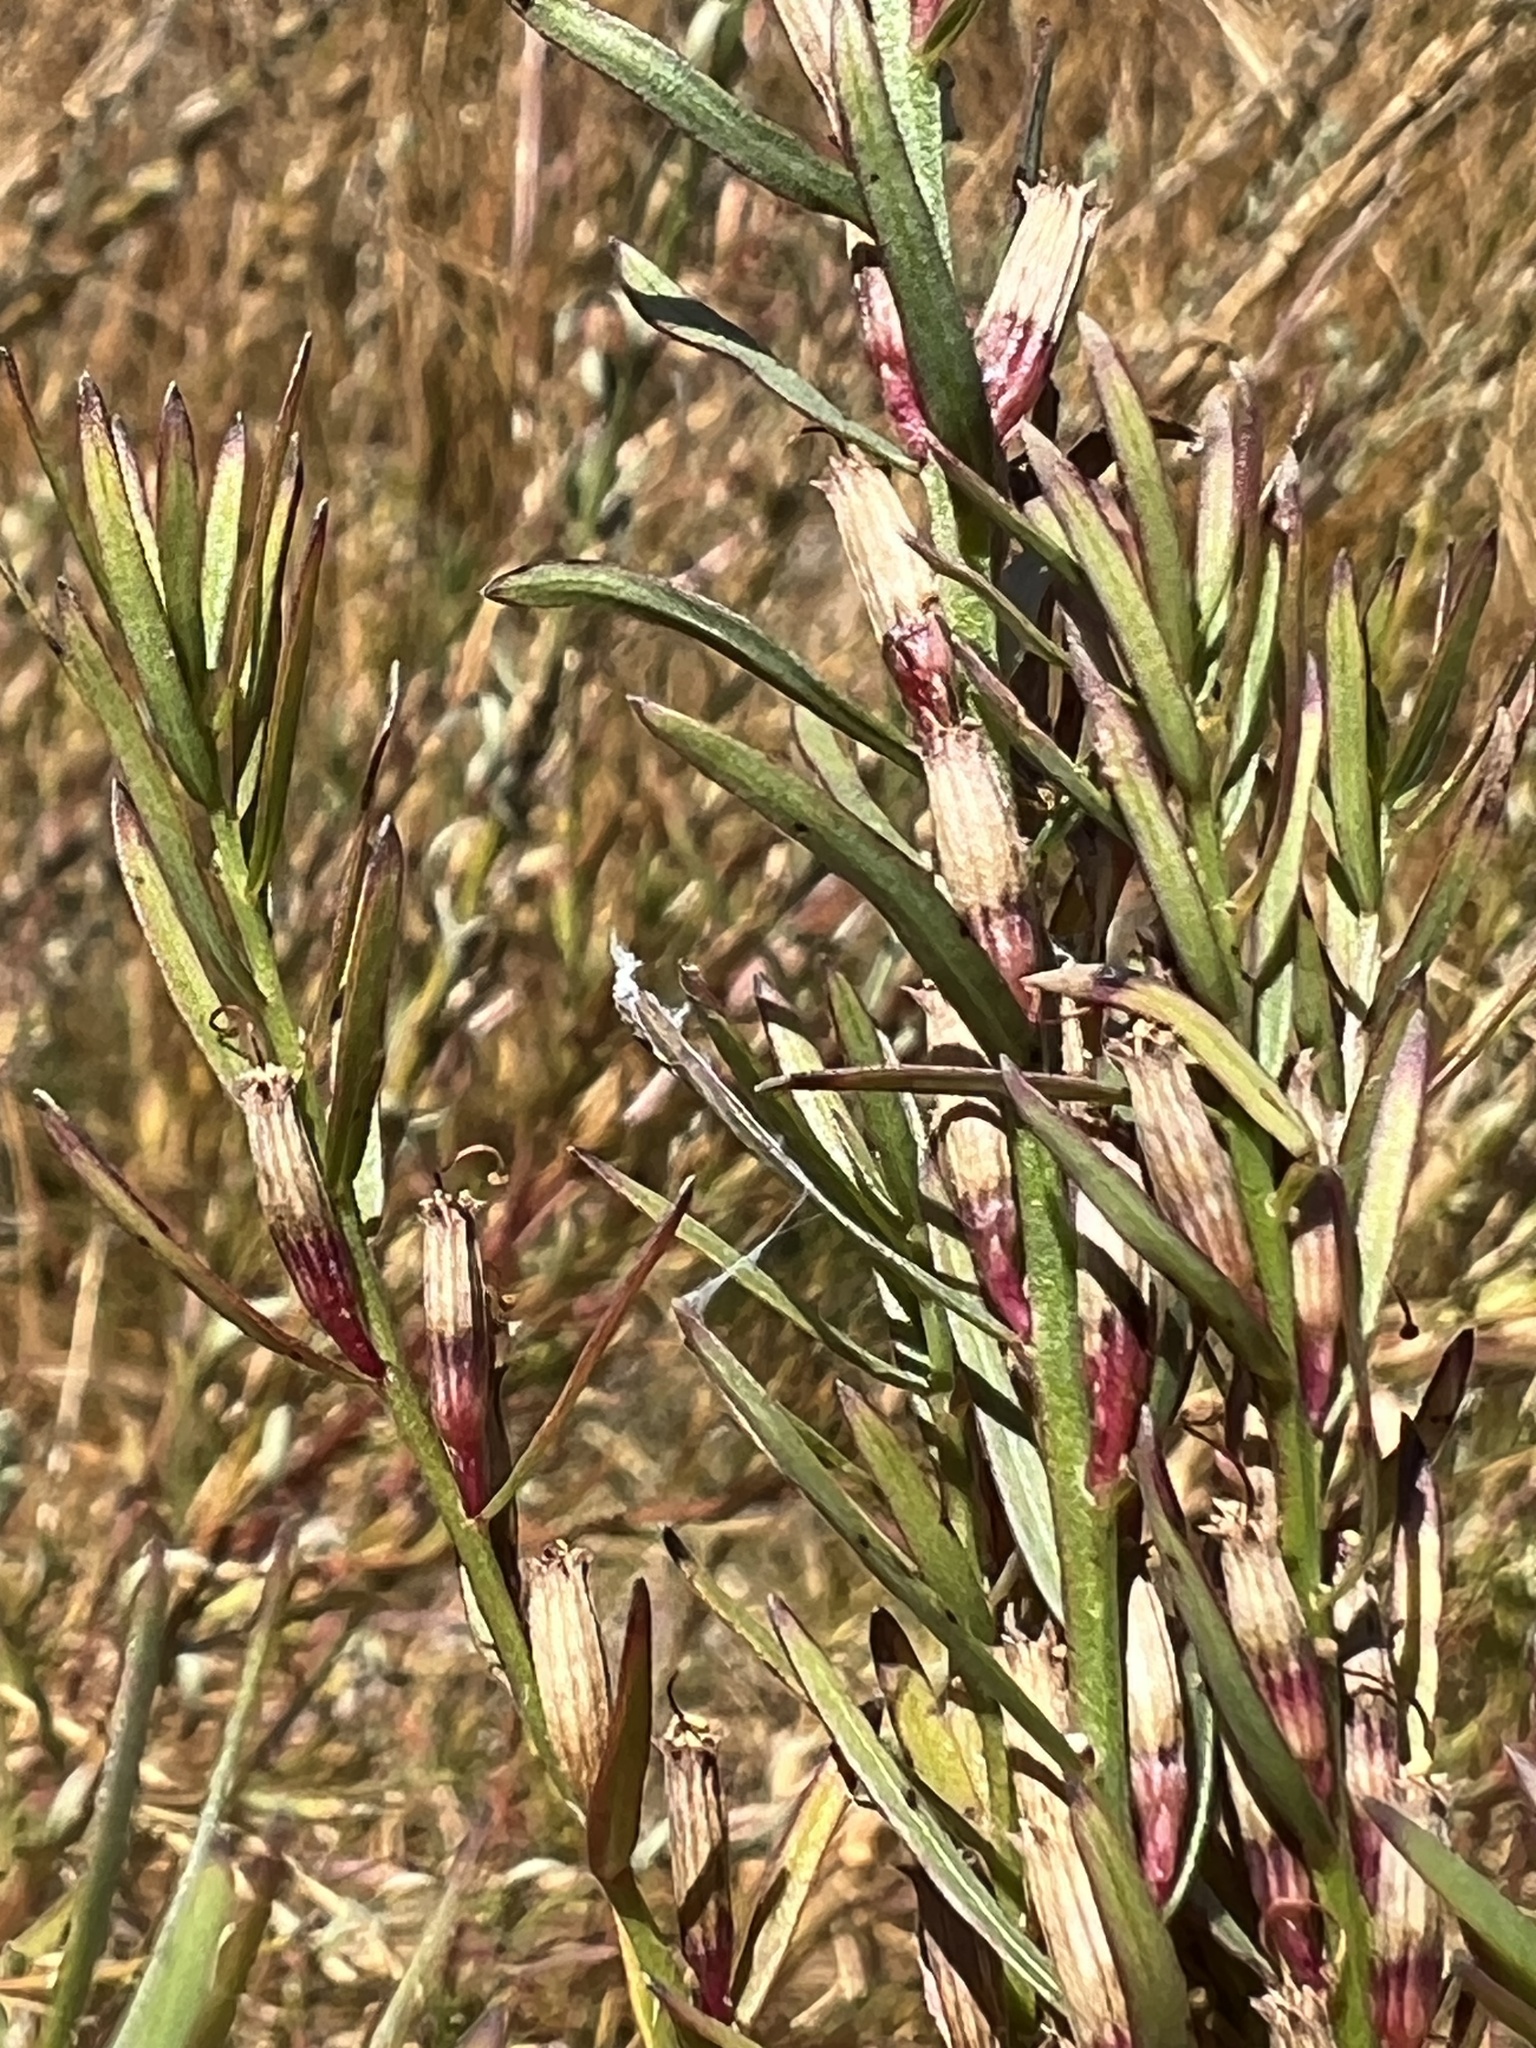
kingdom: Plantae
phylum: Tracheophyta
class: Magnoliopsida
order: Myrtales
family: Lythraceae
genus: Lythrum
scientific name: Lythrum californicum
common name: California loosestrife
